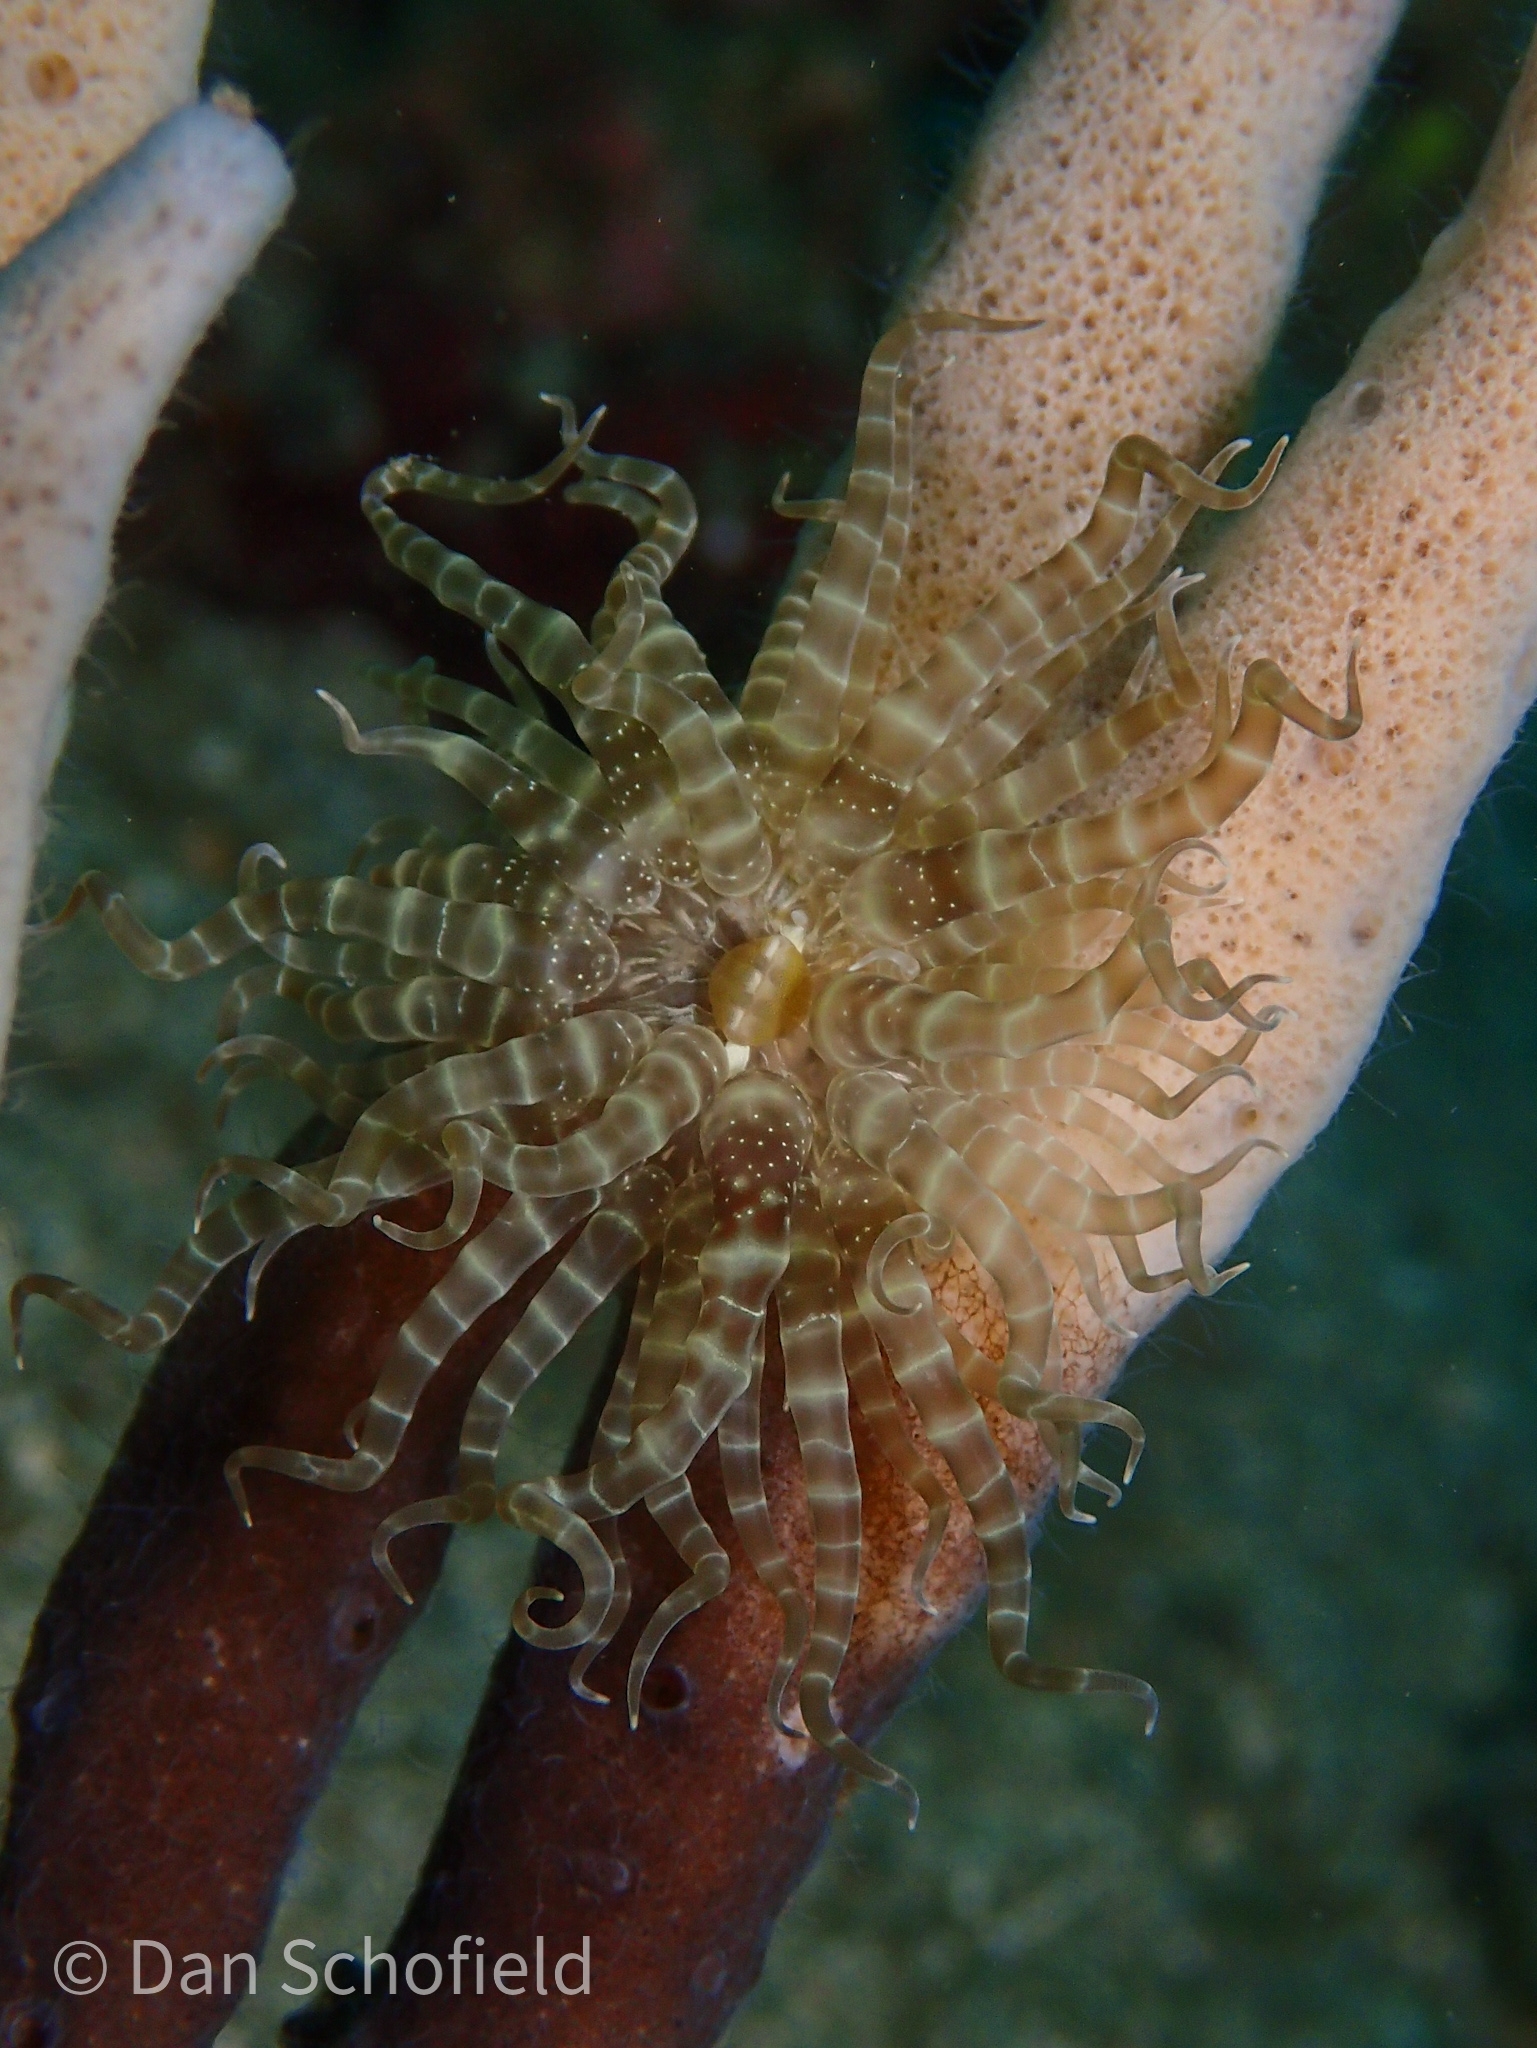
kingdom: Animalia
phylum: Cnidaria
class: Anthozoa
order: Actiniaria
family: Boloceroididae
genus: Boloceroides
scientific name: Boloceroides mcmurrichi
